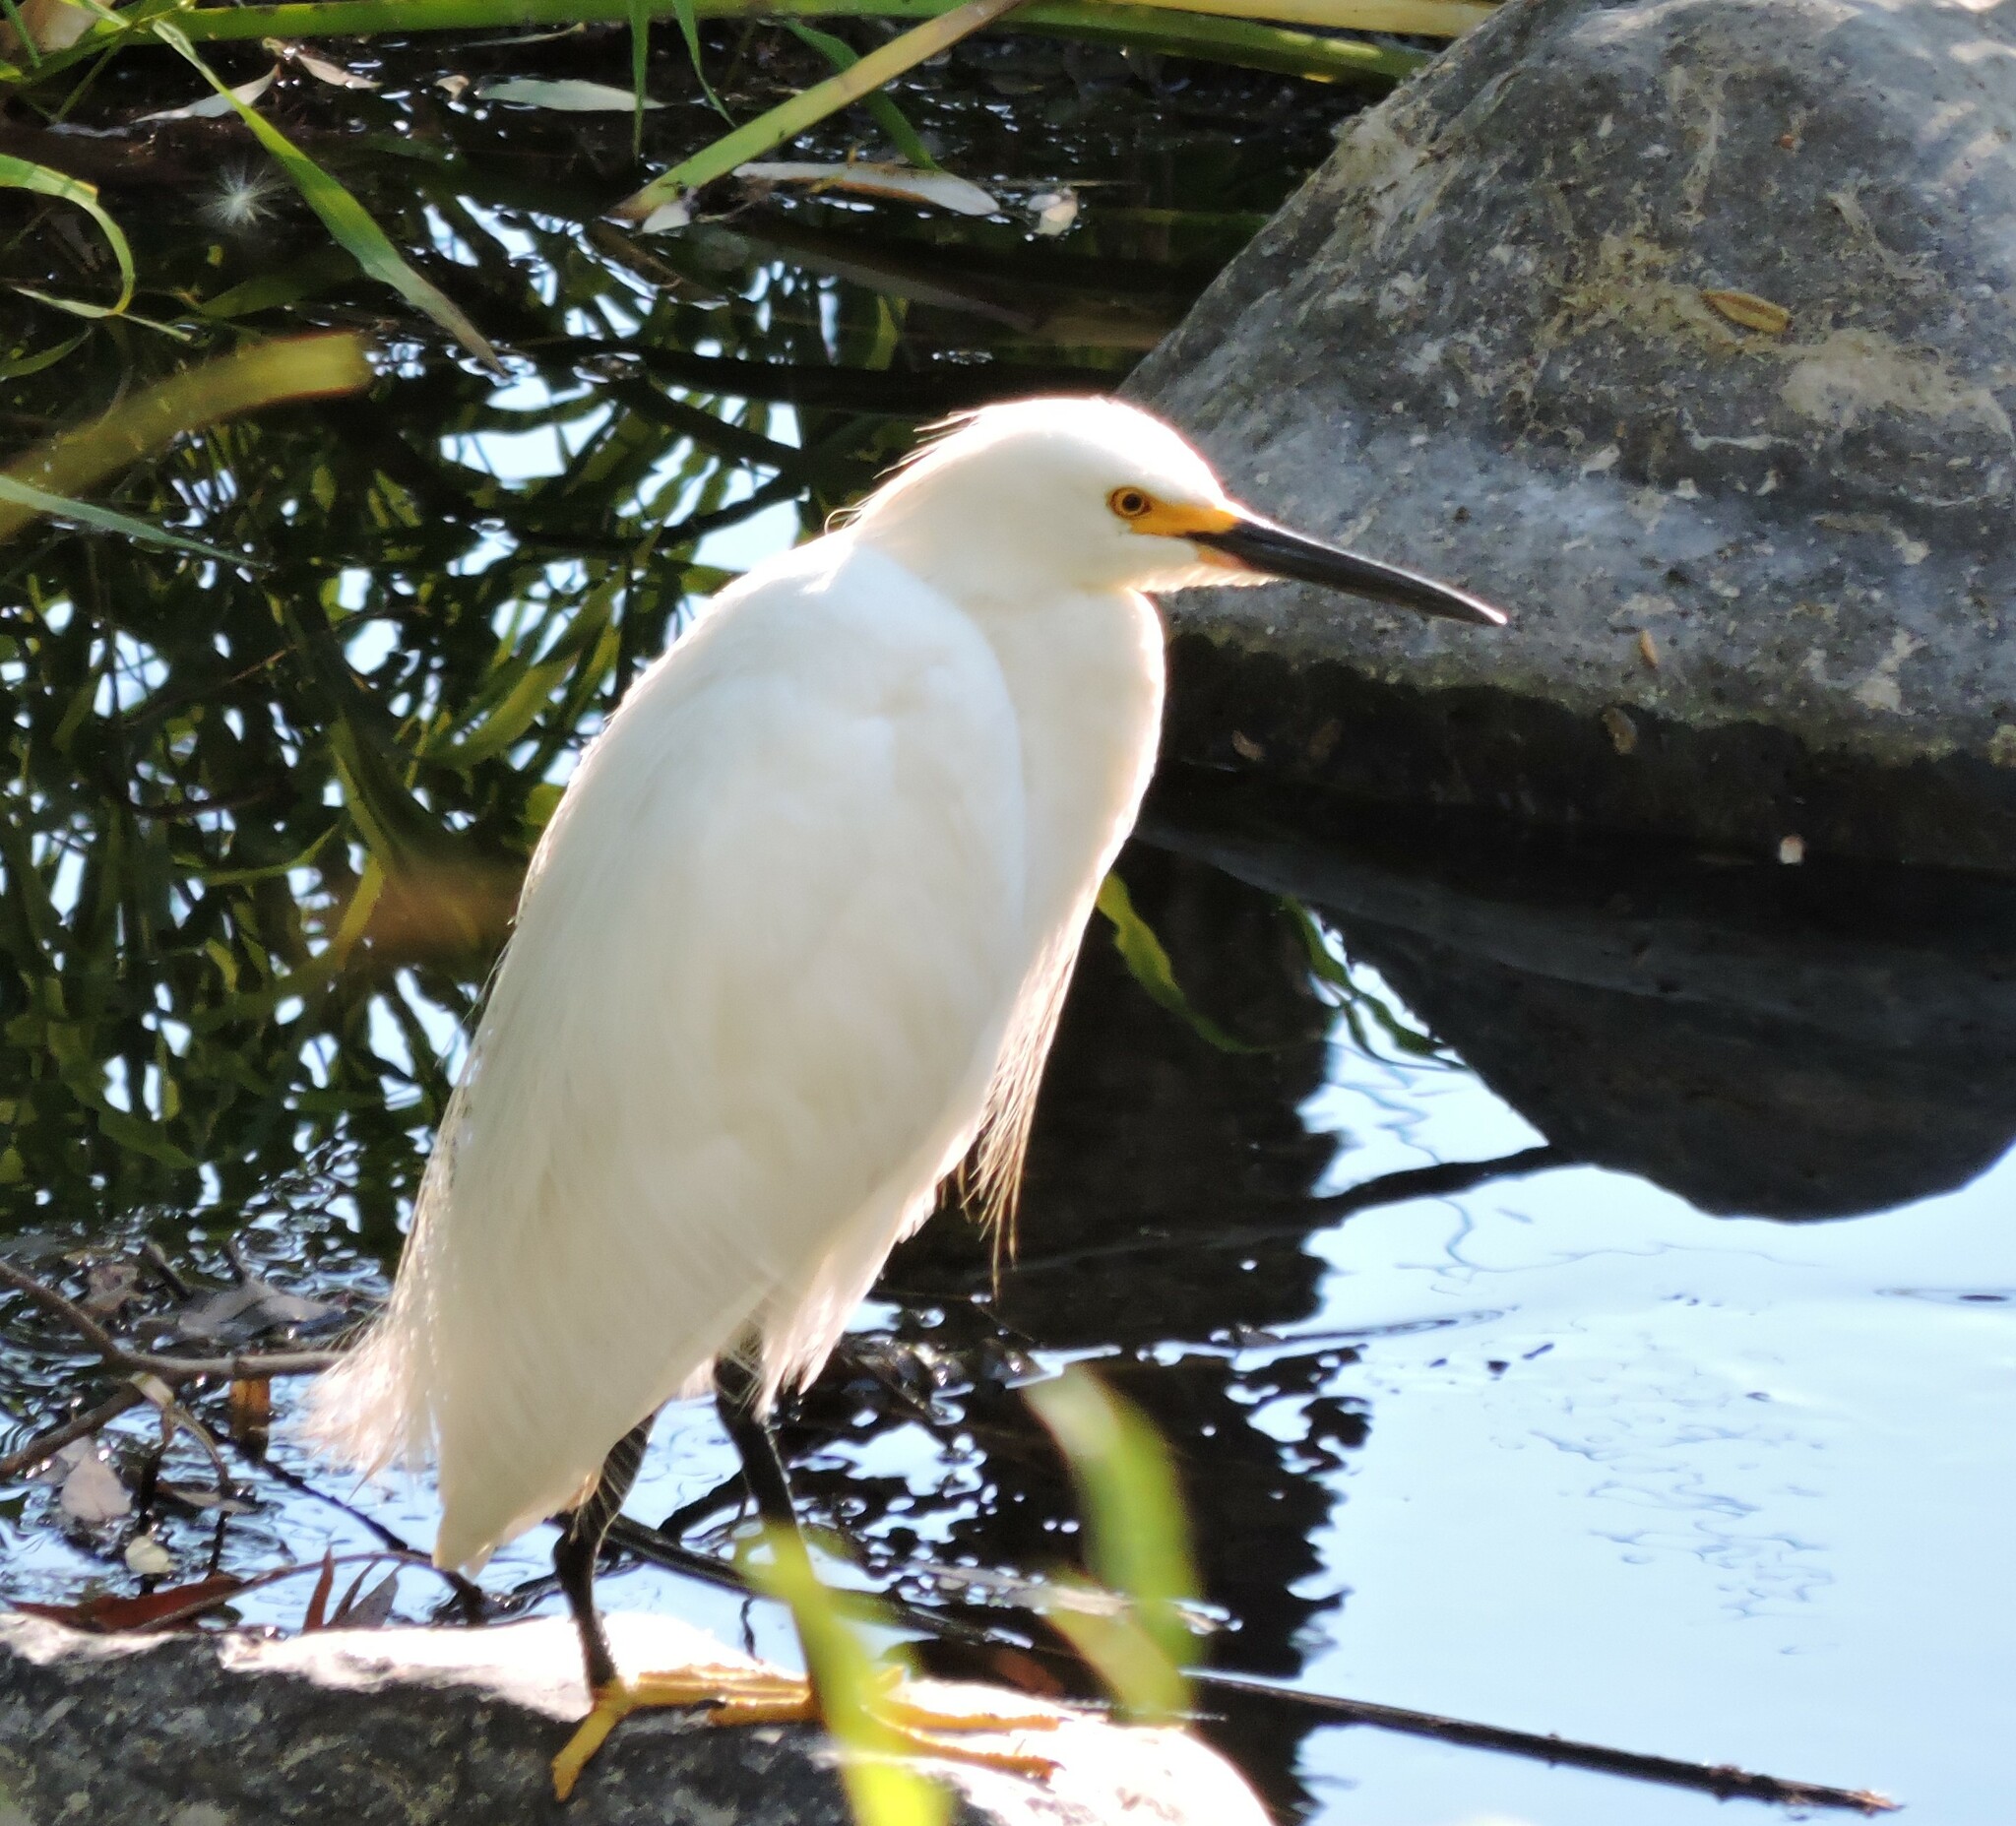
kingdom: Animalia
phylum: Chordata
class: Aves
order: Pelecaniformes
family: Ardeidae
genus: Egretta
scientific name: Egretta thula
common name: Snowy egret
